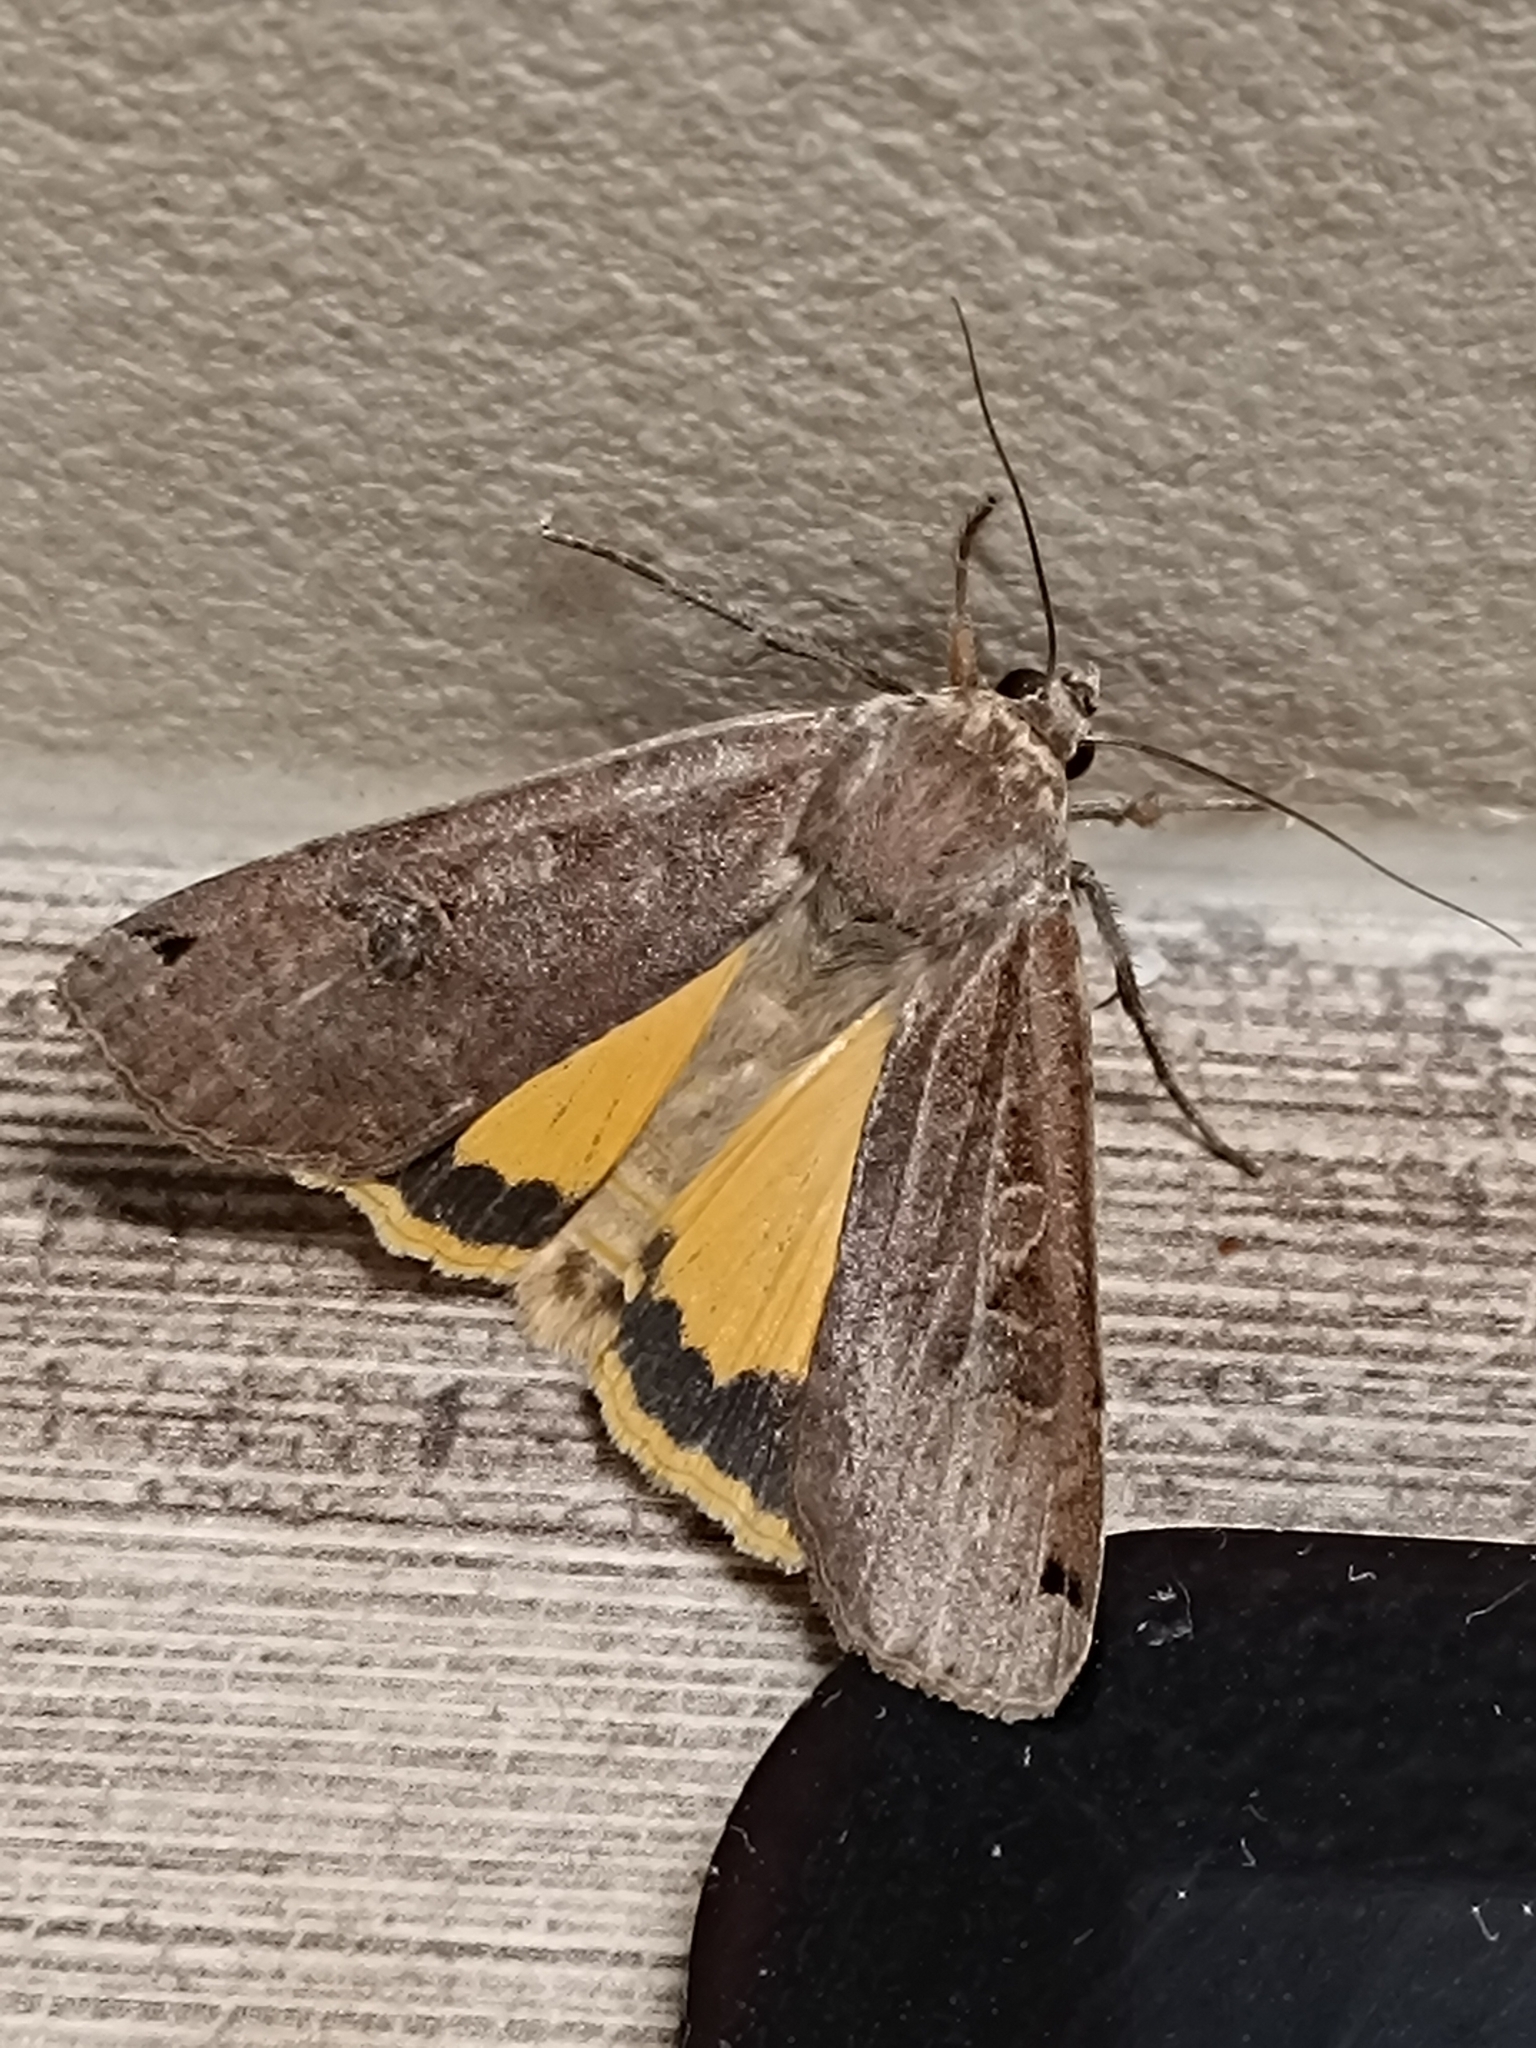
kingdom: Animalia
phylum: Arthropoda
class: Insecta
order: Lepidoptera
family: Noctuidae
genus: Noctua
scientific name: Noctua pronuba
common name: Large yellow underwing
